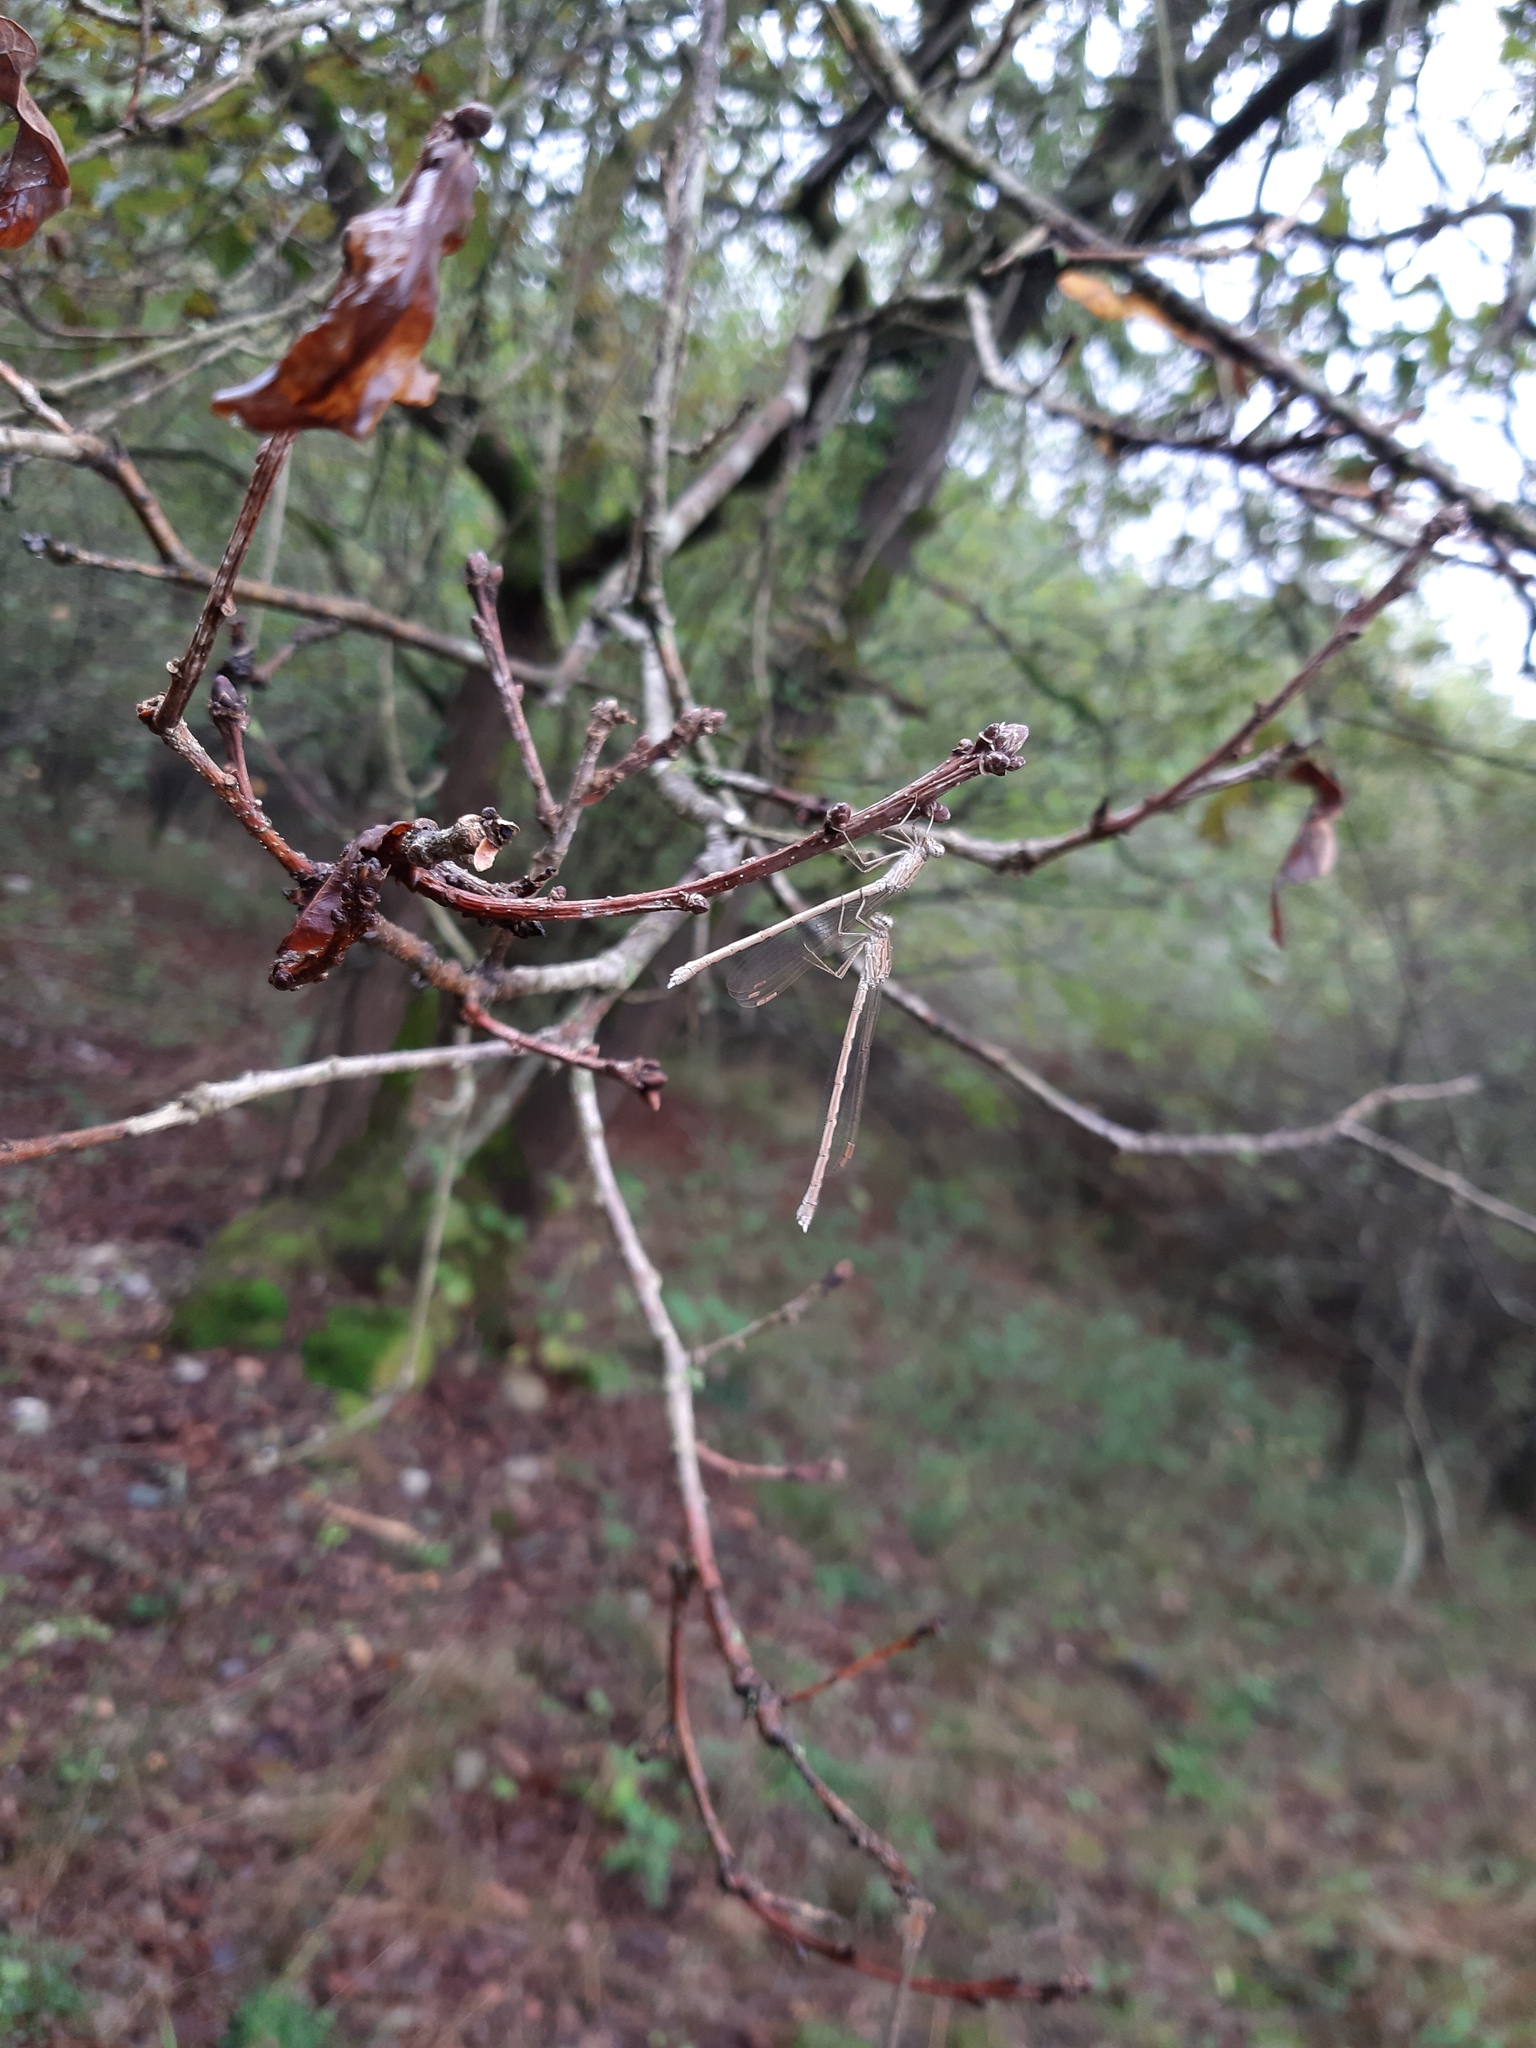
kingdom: Animalia
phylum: Arthropoda
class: Insecta
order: Odonata
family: Lestidae
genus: Sympecma
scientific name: Sympecma paedisca
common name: Siberian winter damsel
